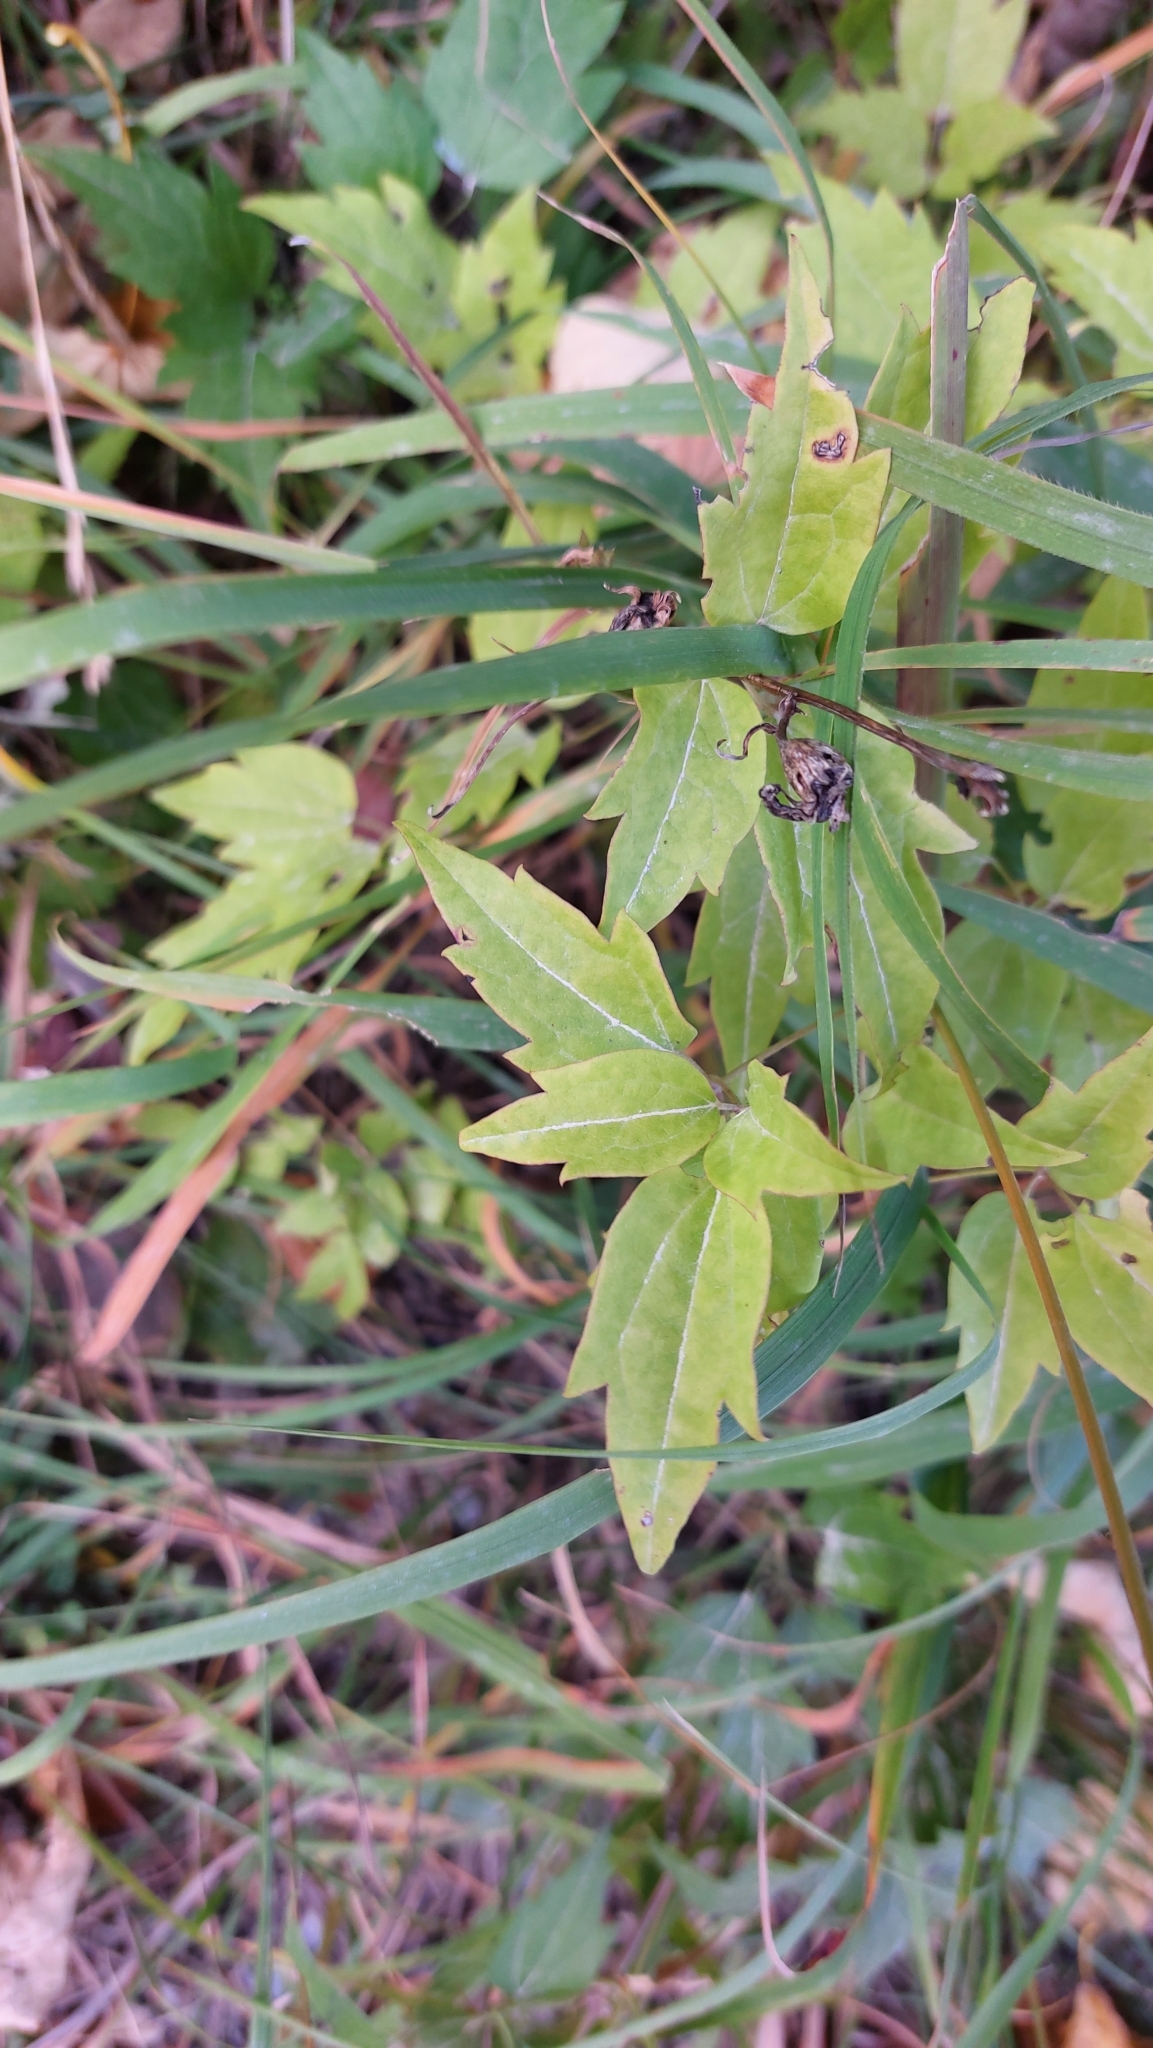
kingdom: Plantae
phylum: Tracheophyta
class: Magnoliopsida
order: Ranunculales
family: Ranunculaceae
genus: Clematis
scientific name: Clematis vitalba
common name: Evergreen clematis
